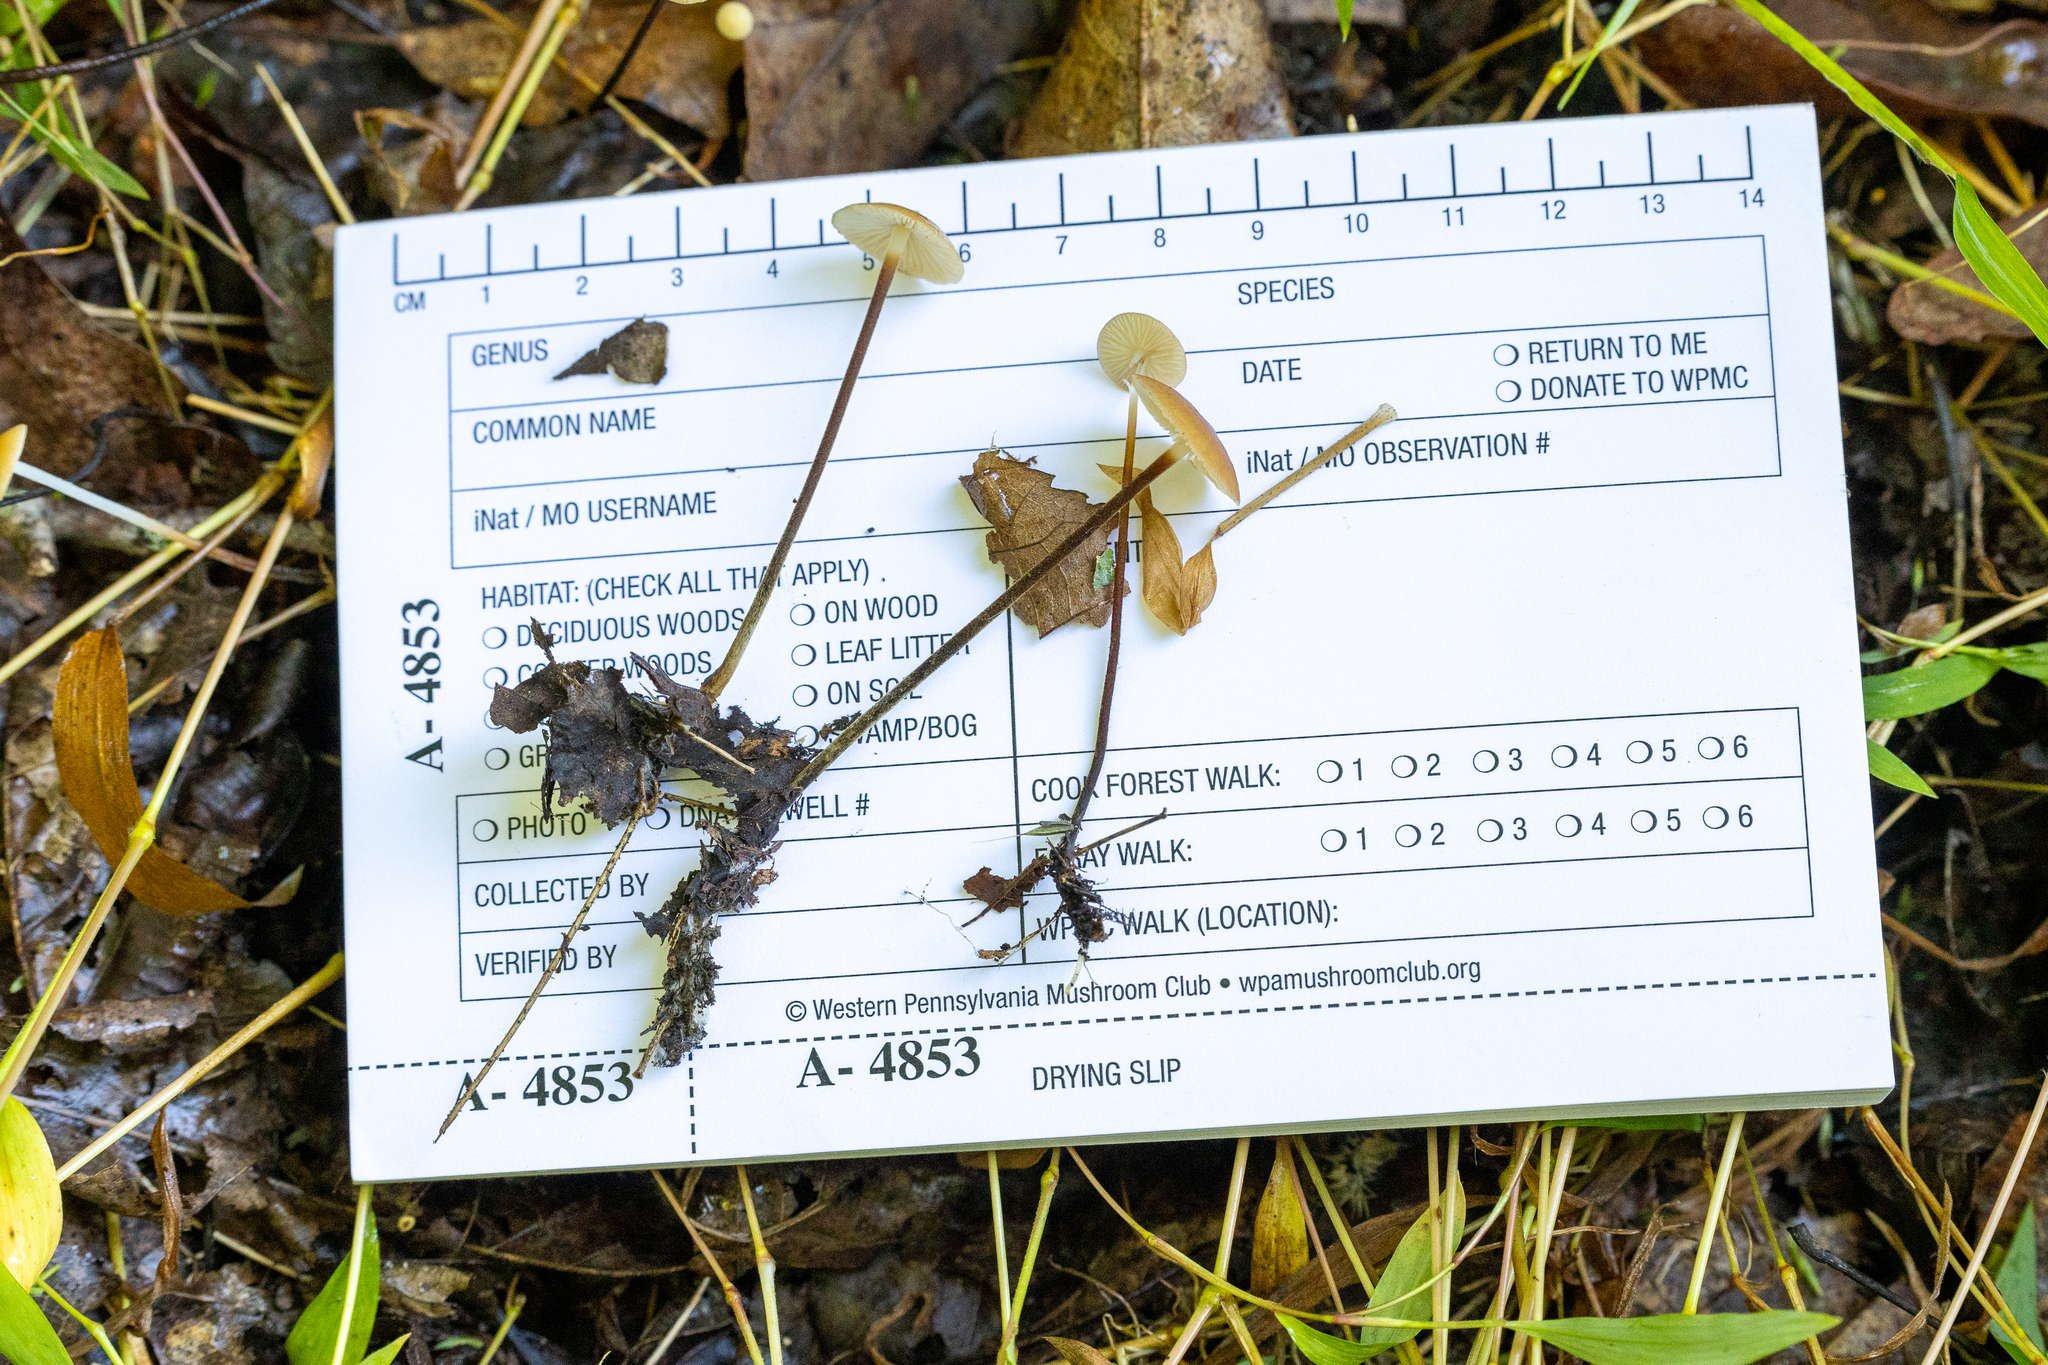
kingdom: Fungi
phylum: Basidiomycota
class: Agaricomycetes
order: Agaricales
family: Mycenaceae
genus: Mycena
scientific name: Mycena crocea
